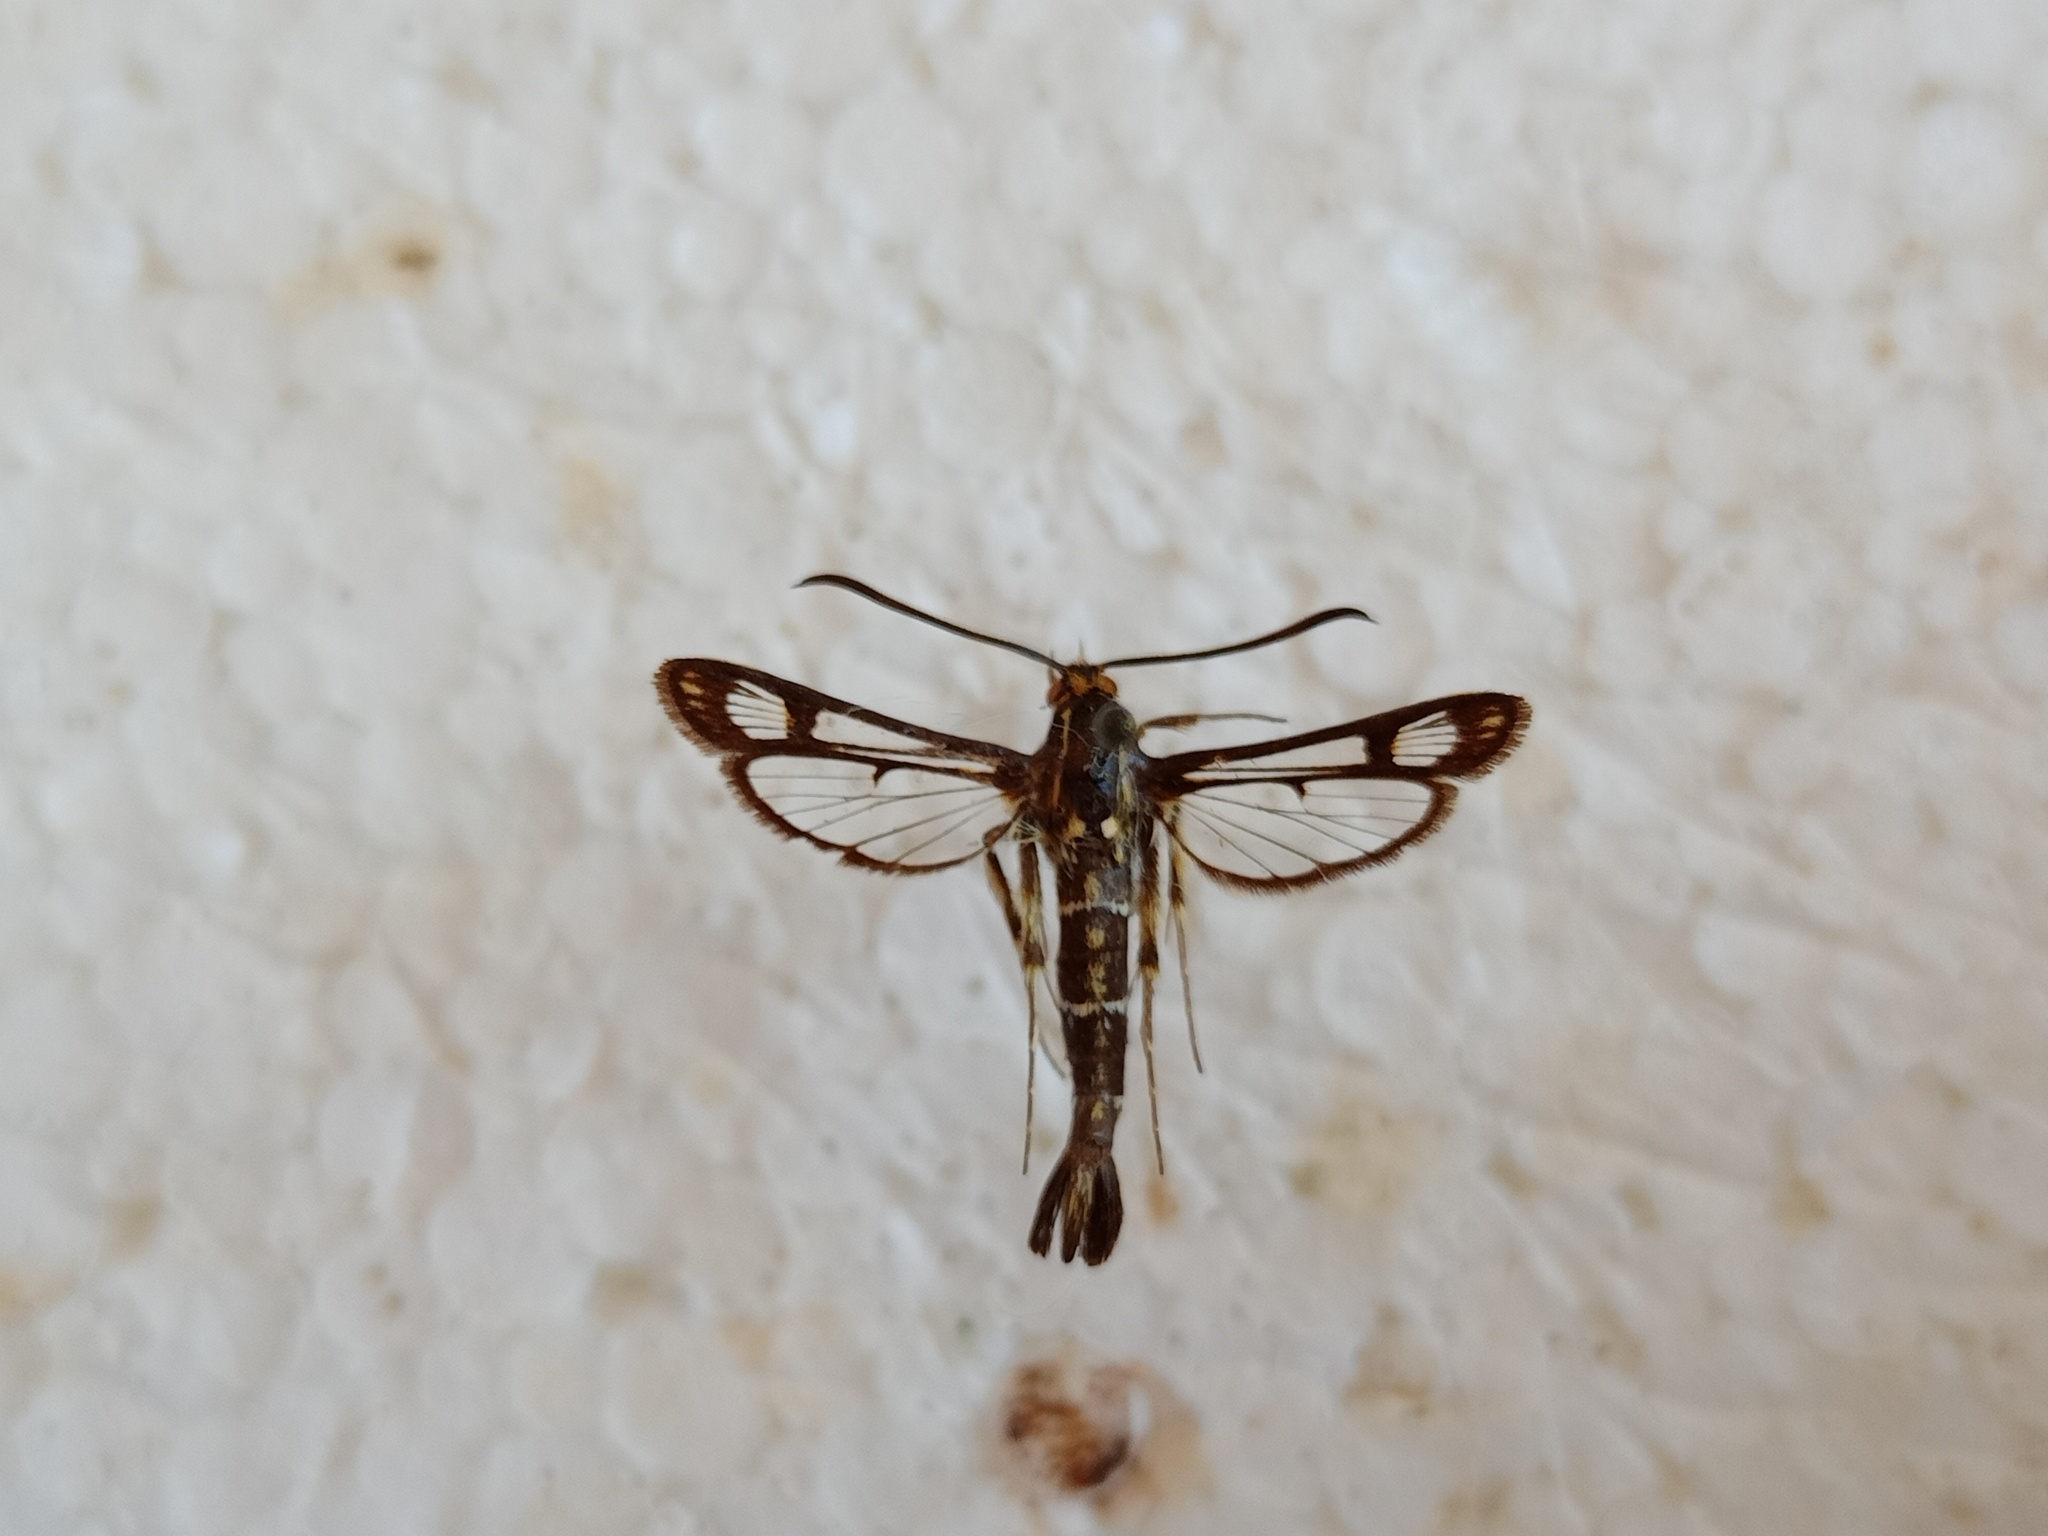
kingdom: Animalia
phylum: Arthropoda
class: Insecta
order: Lepidoptera
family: Sesiidae
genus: Pyropteron
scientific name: Pyropteron triannuliformis
